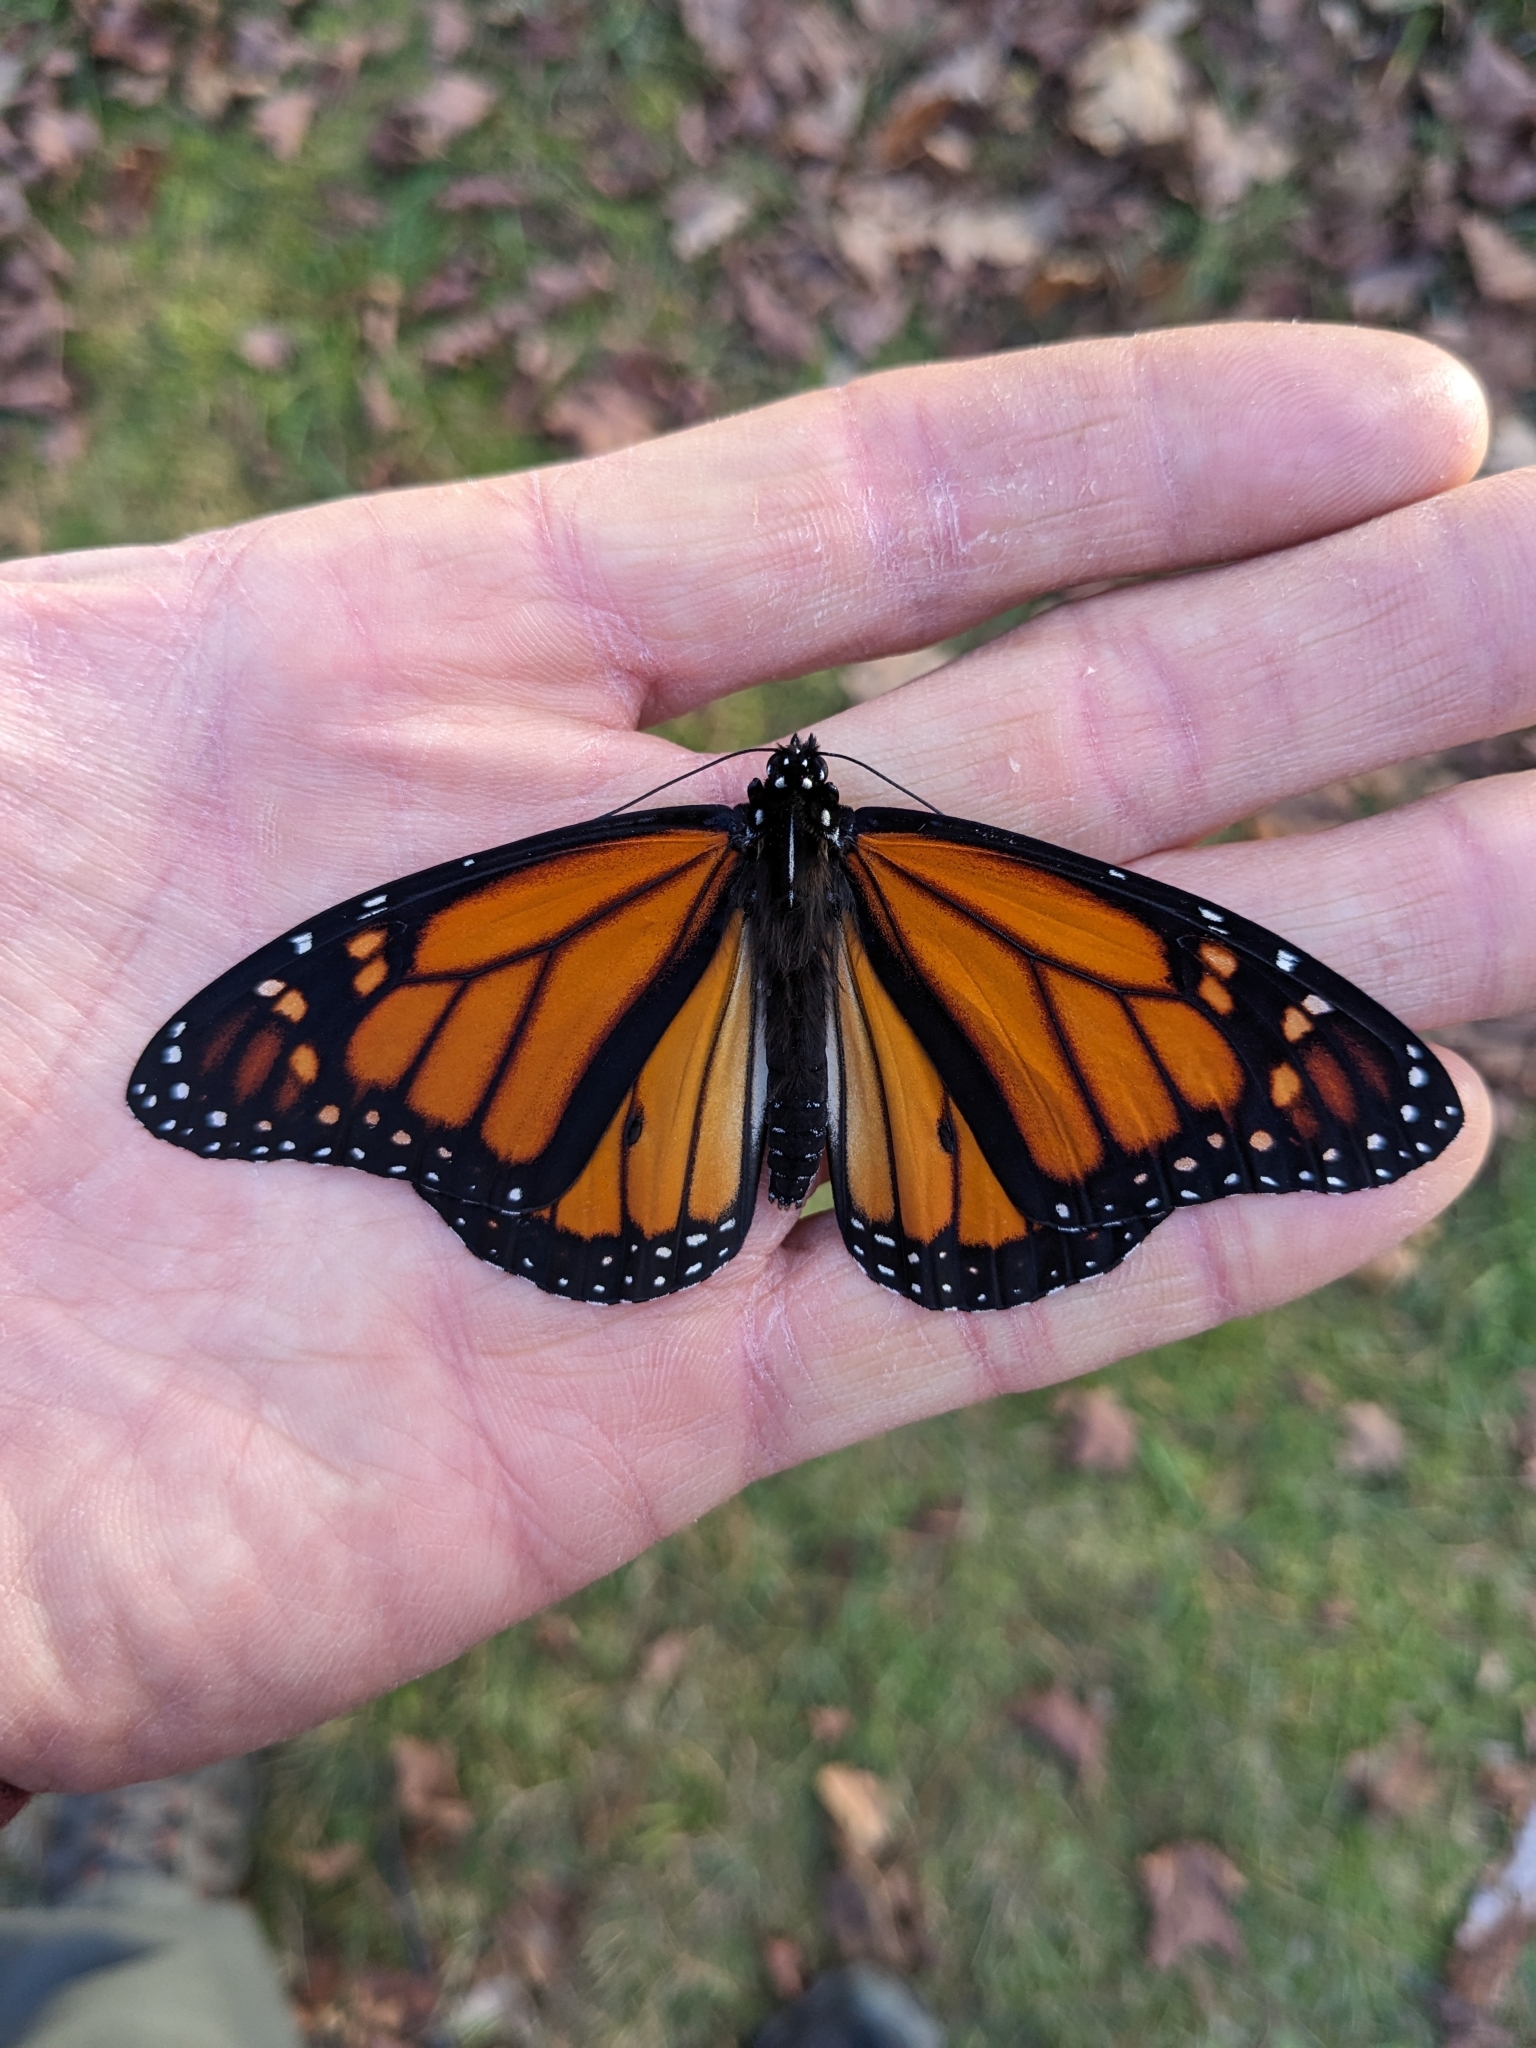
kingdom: Animalia
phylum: Arthropoda
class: Insecta
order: Lepidoptera
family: Nymphalidae
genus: Danaus
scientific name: Danaus plexippus
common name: Monarch
